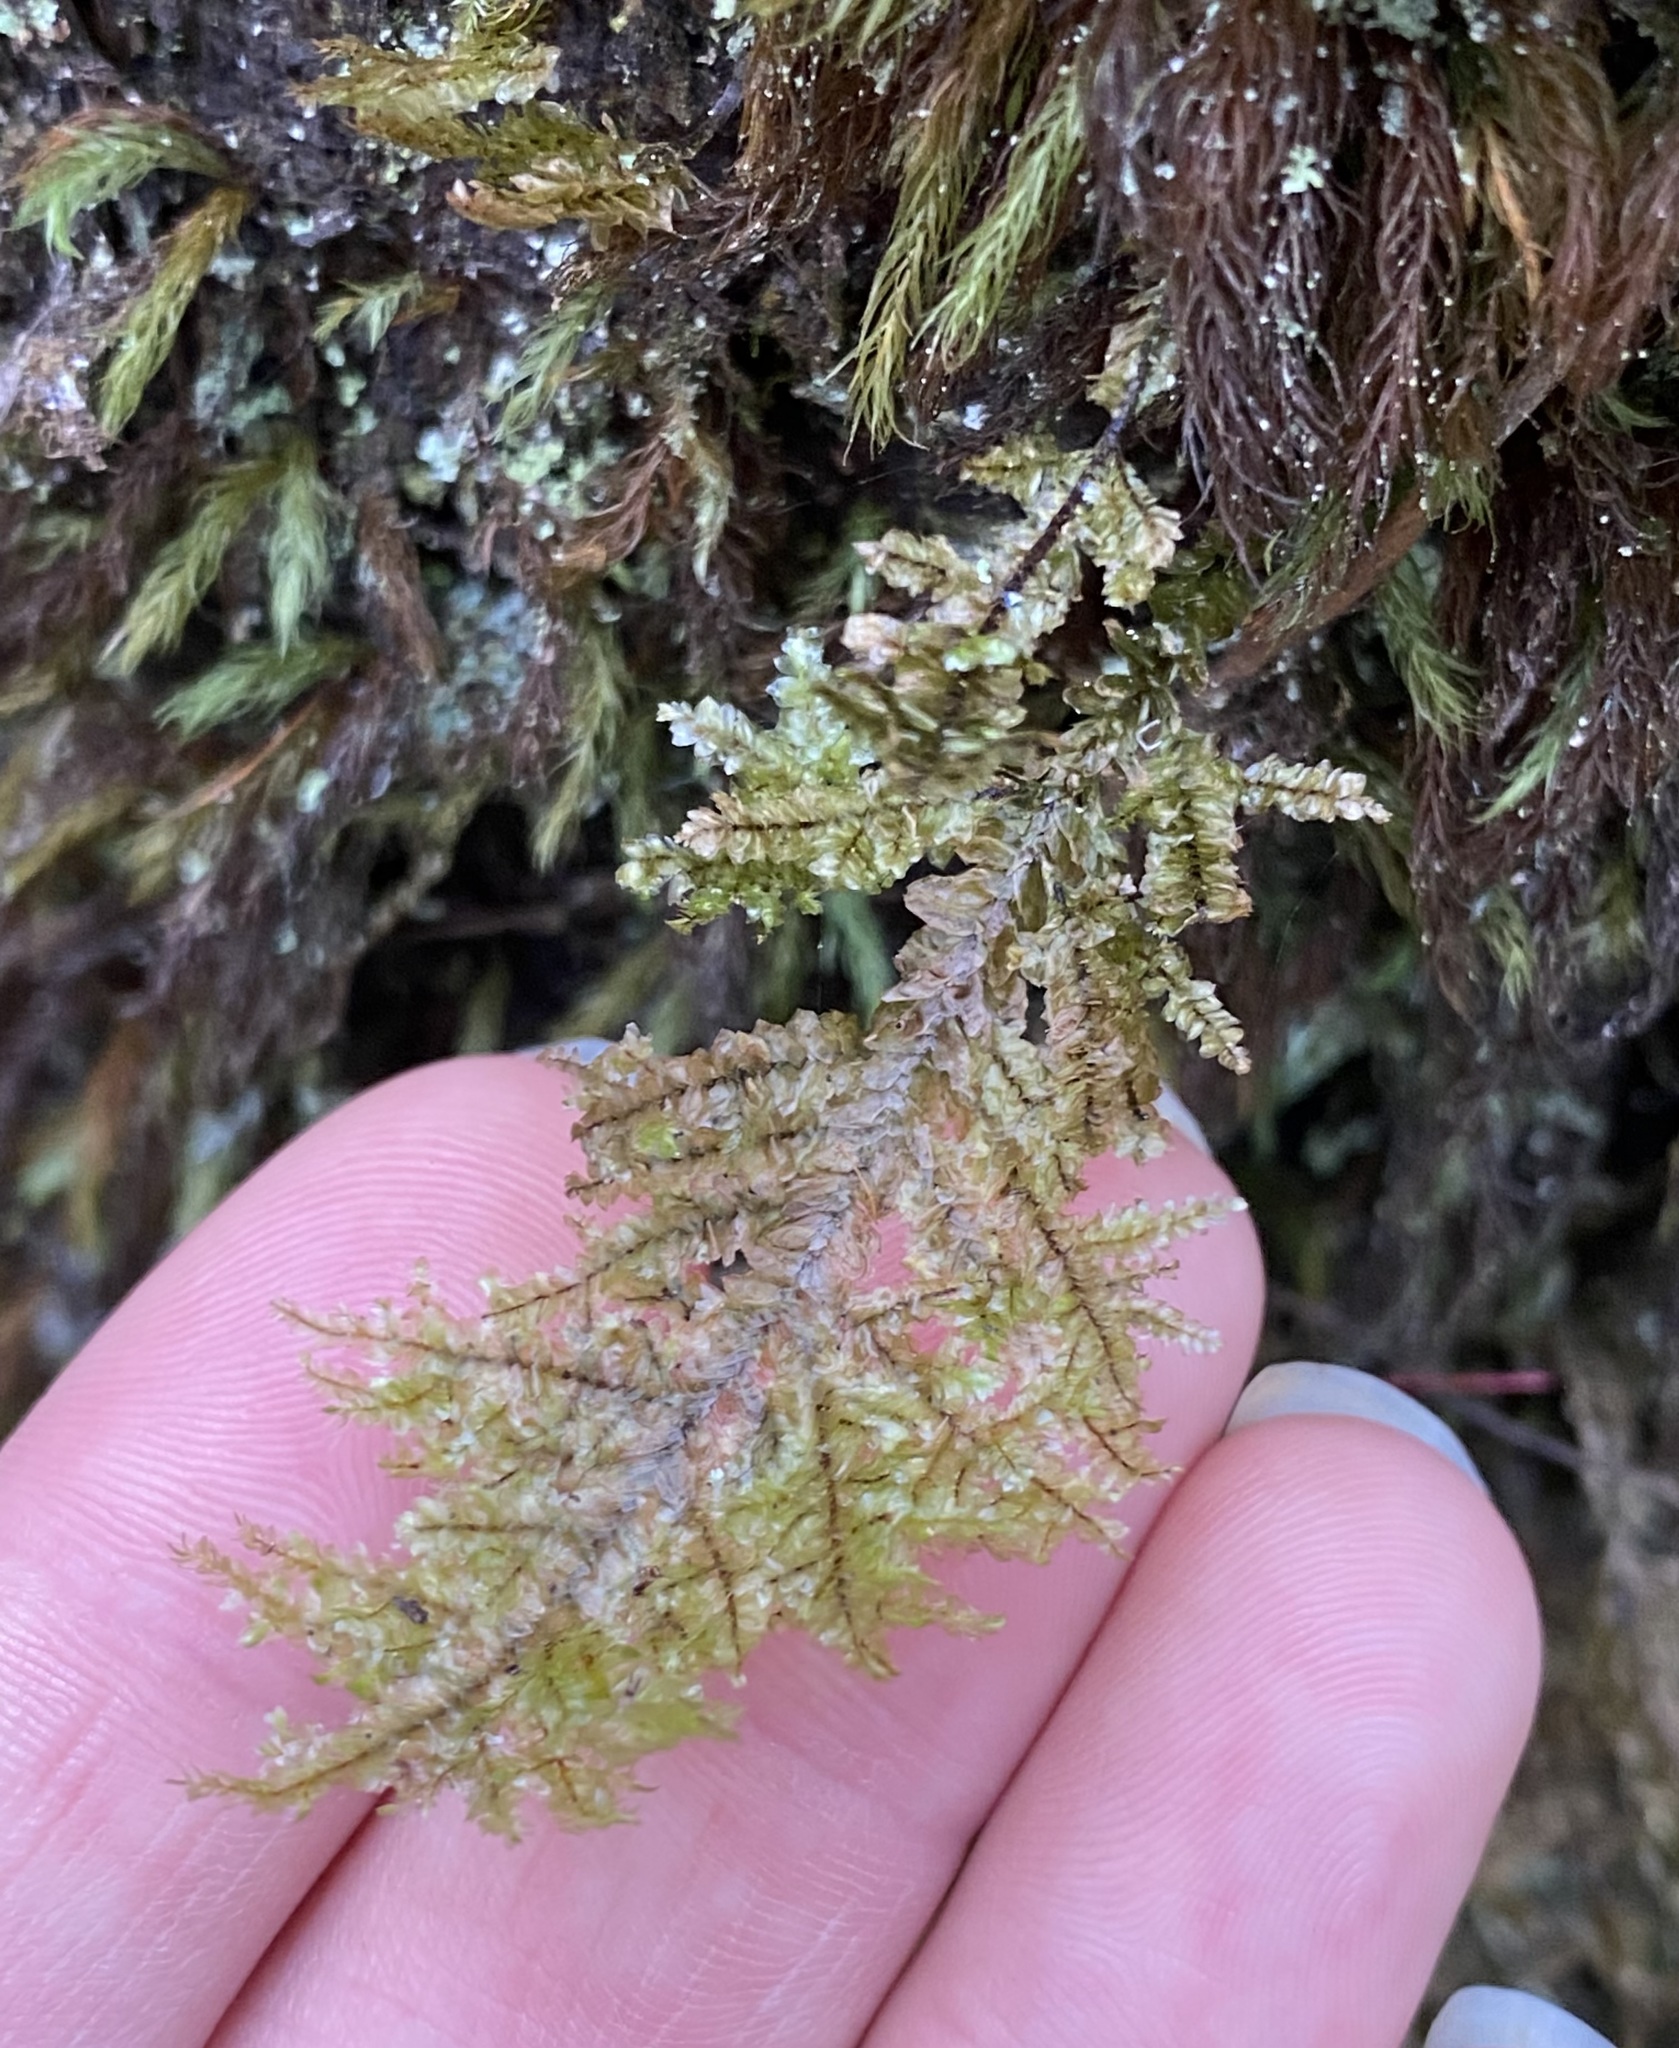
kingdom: Plantae
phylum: Bryophyta
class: Bryopsida
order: Hypnales
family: Neckeraceae
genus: Homaliodendron
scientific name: Homaliodendron flabellatum
